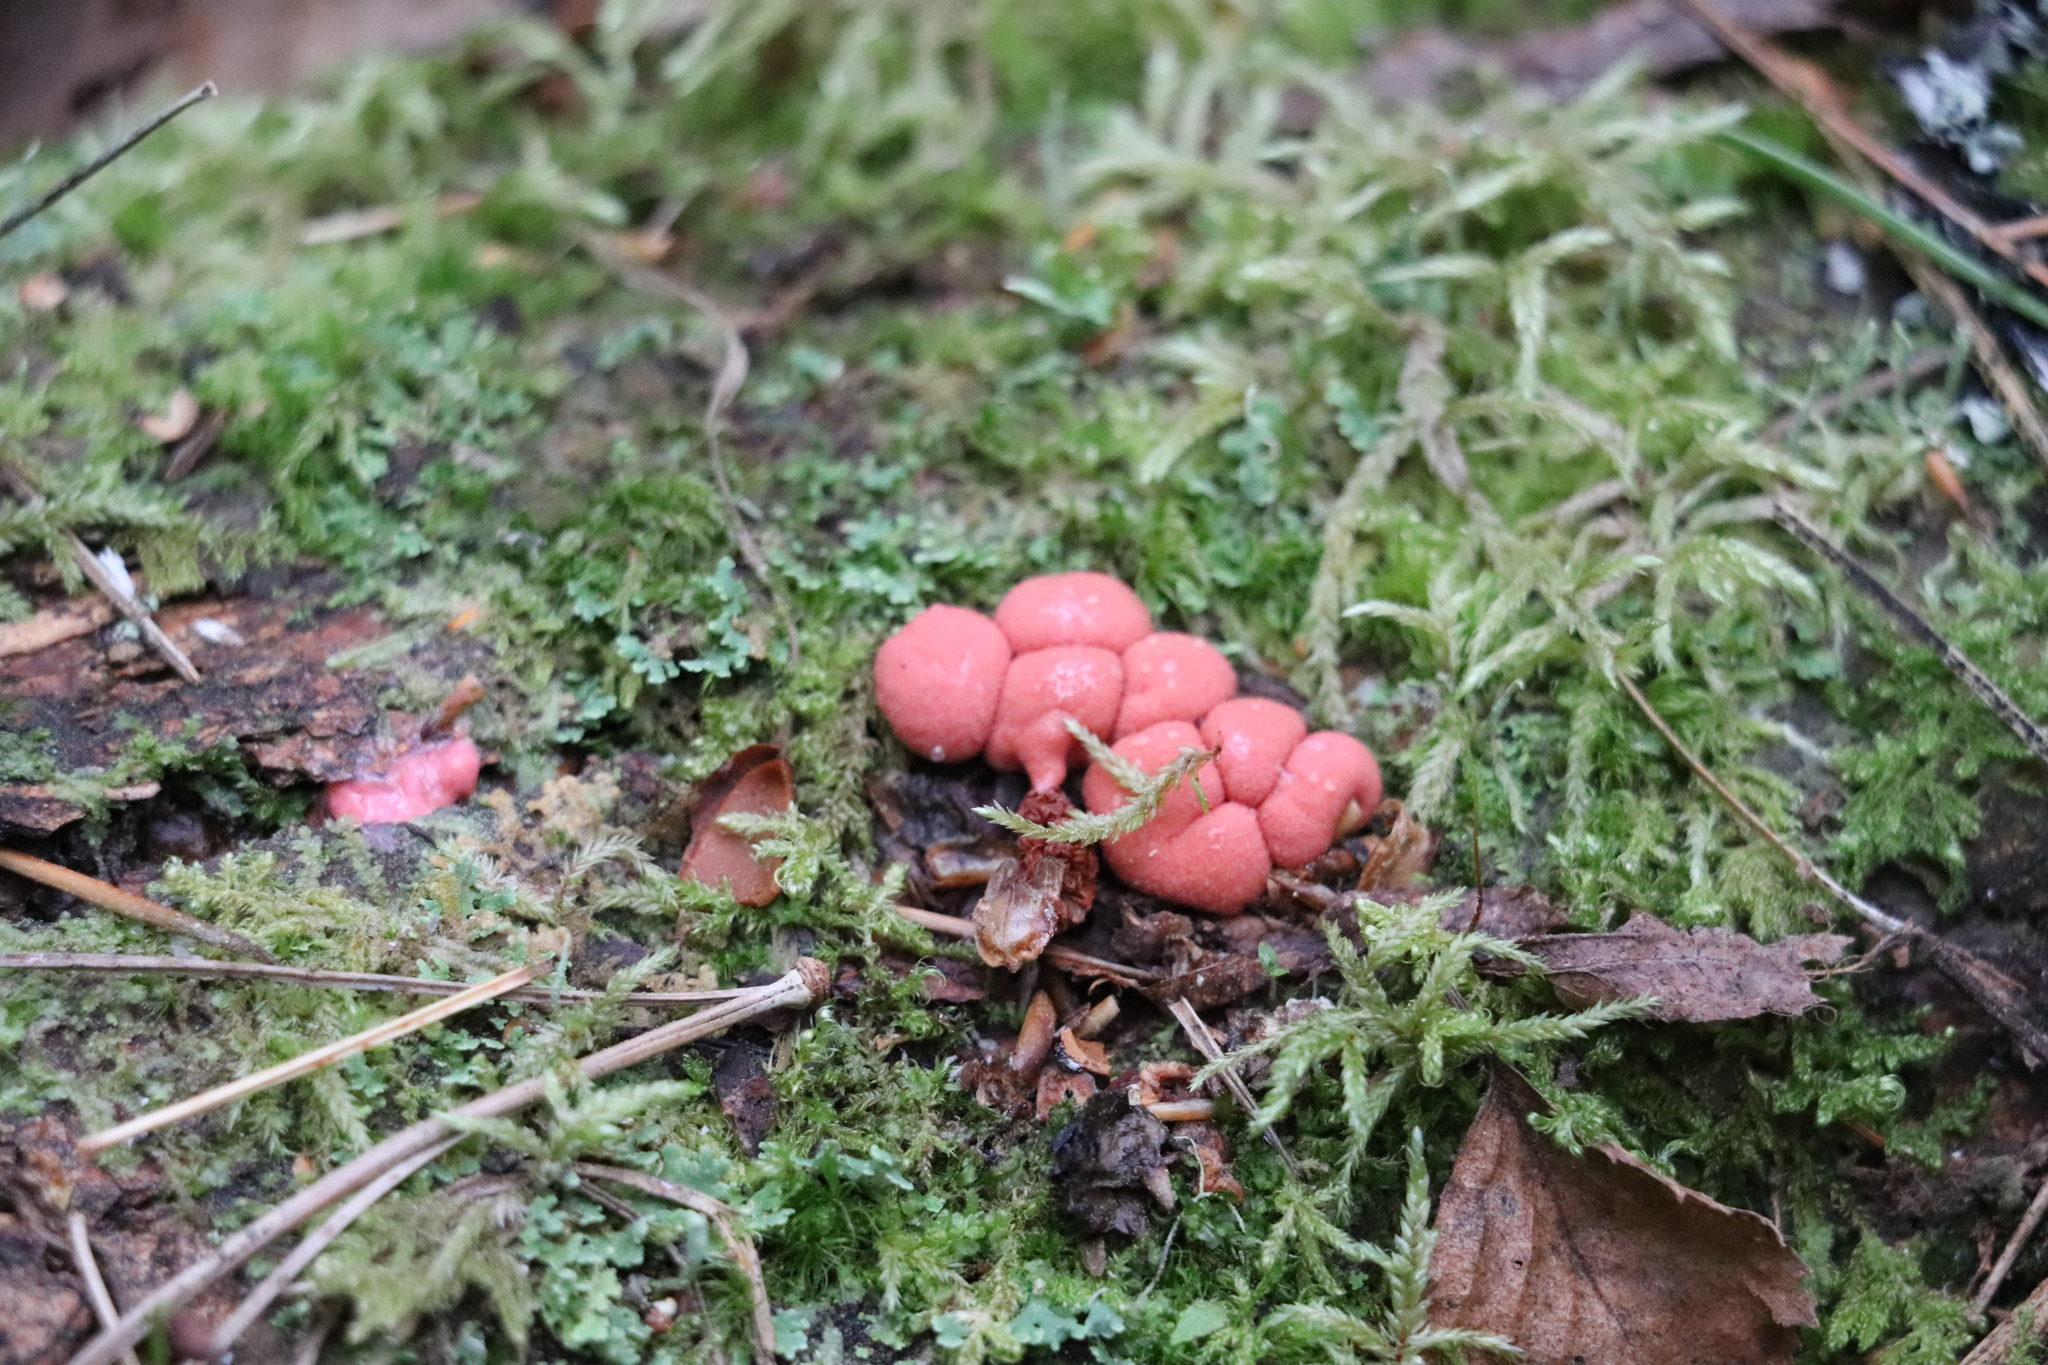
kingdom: Protozoa
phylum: Mycetozoa
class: Myxomycetes
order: Cribrariales
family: Tubiferaceae
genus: Lycogala
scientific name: Lycogala epidendrum
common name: Wolf's milk
